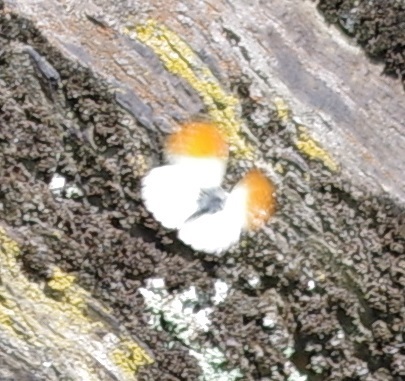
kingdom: Animalia
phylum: Arthropoda
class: Insecta
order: Lepidoptera
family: Pieridae
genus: Anthocharis
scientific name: Anthocharis cardamines
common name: Orange-tip
